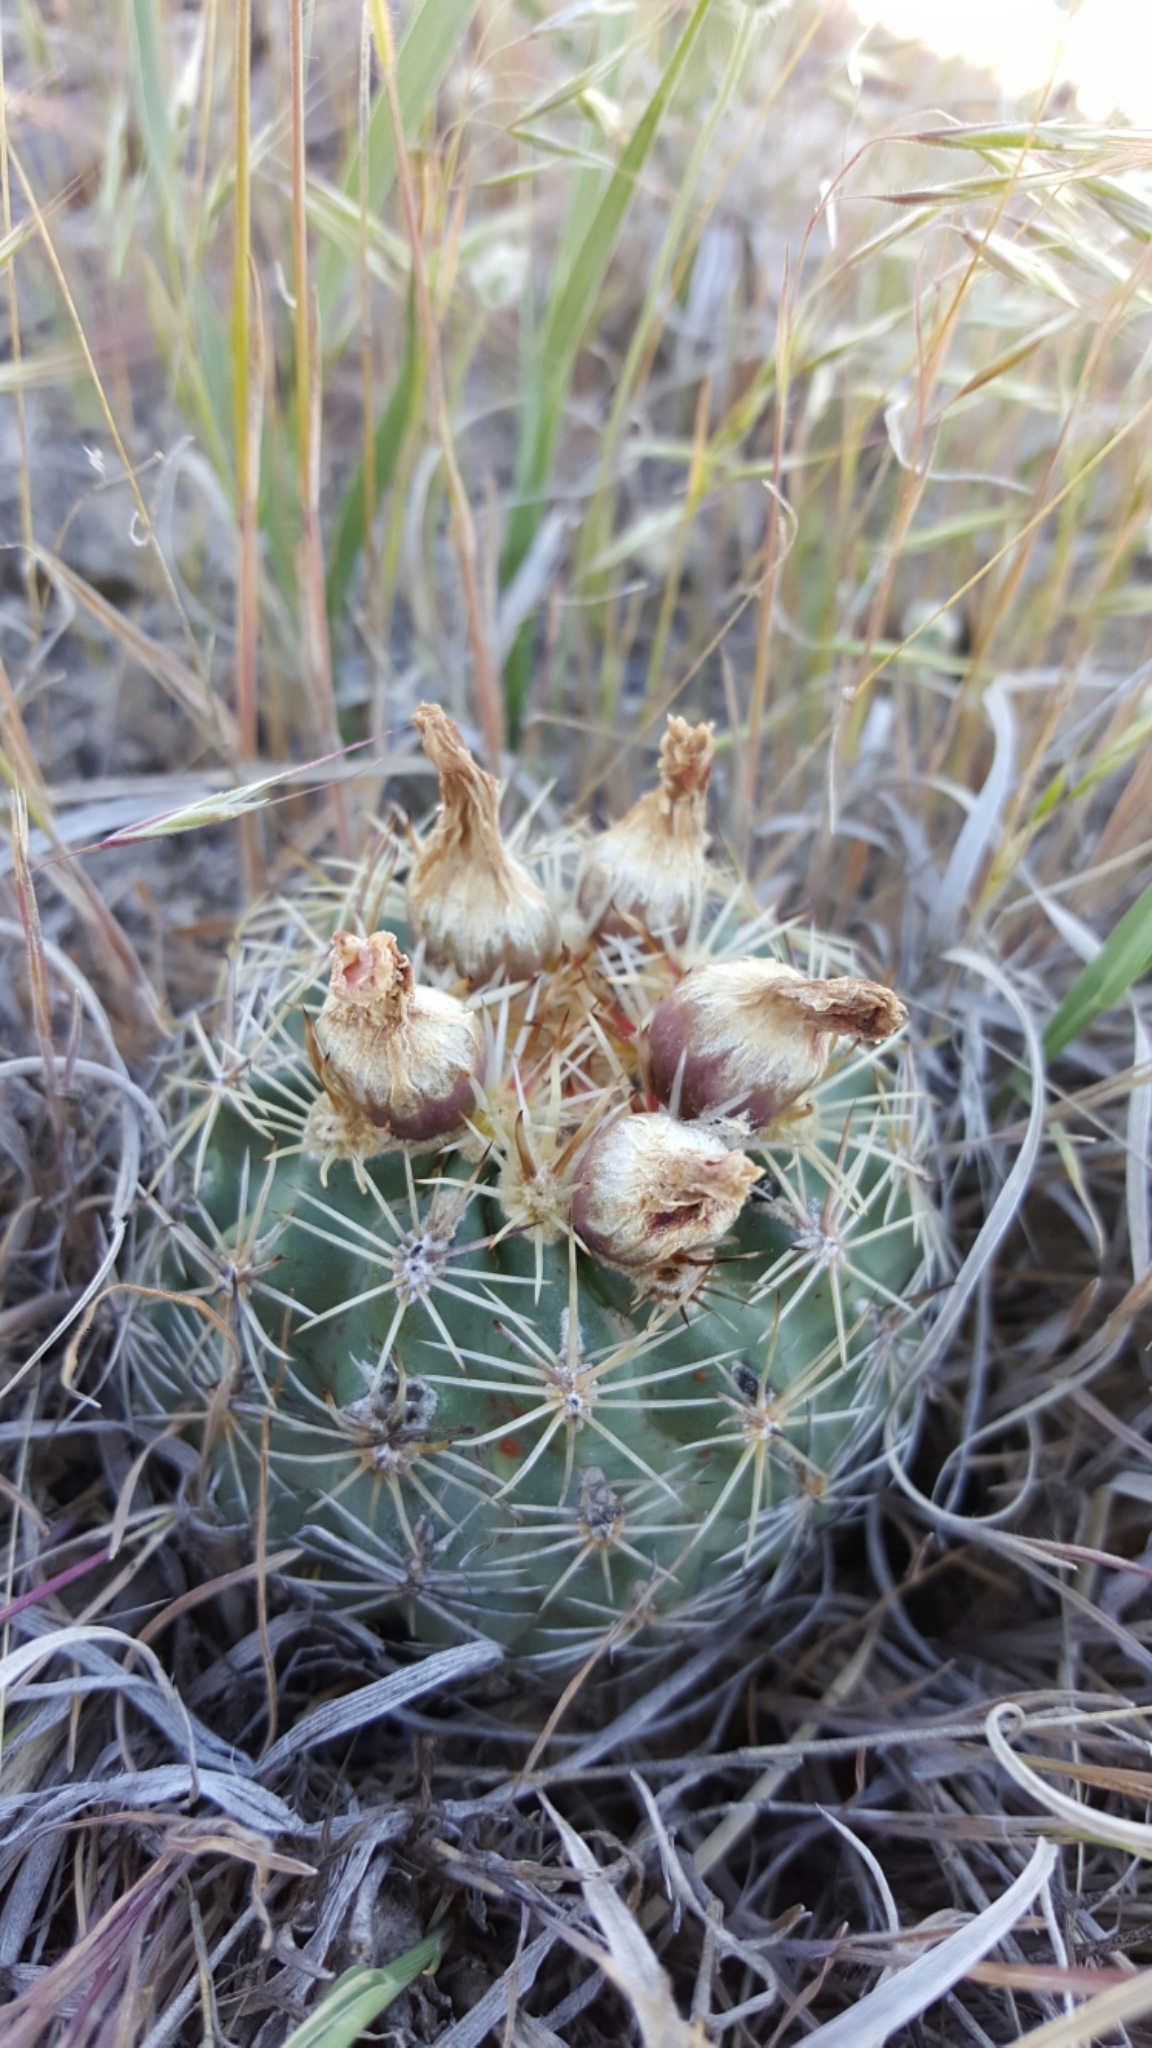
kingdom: Plantae
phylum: Tracheophyta
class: Magnoliopsida
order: Caryophyllales
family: Cactaceae
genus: Sclerocactus
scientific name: Sclerocactus brevispinus
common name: Pariette cactus
